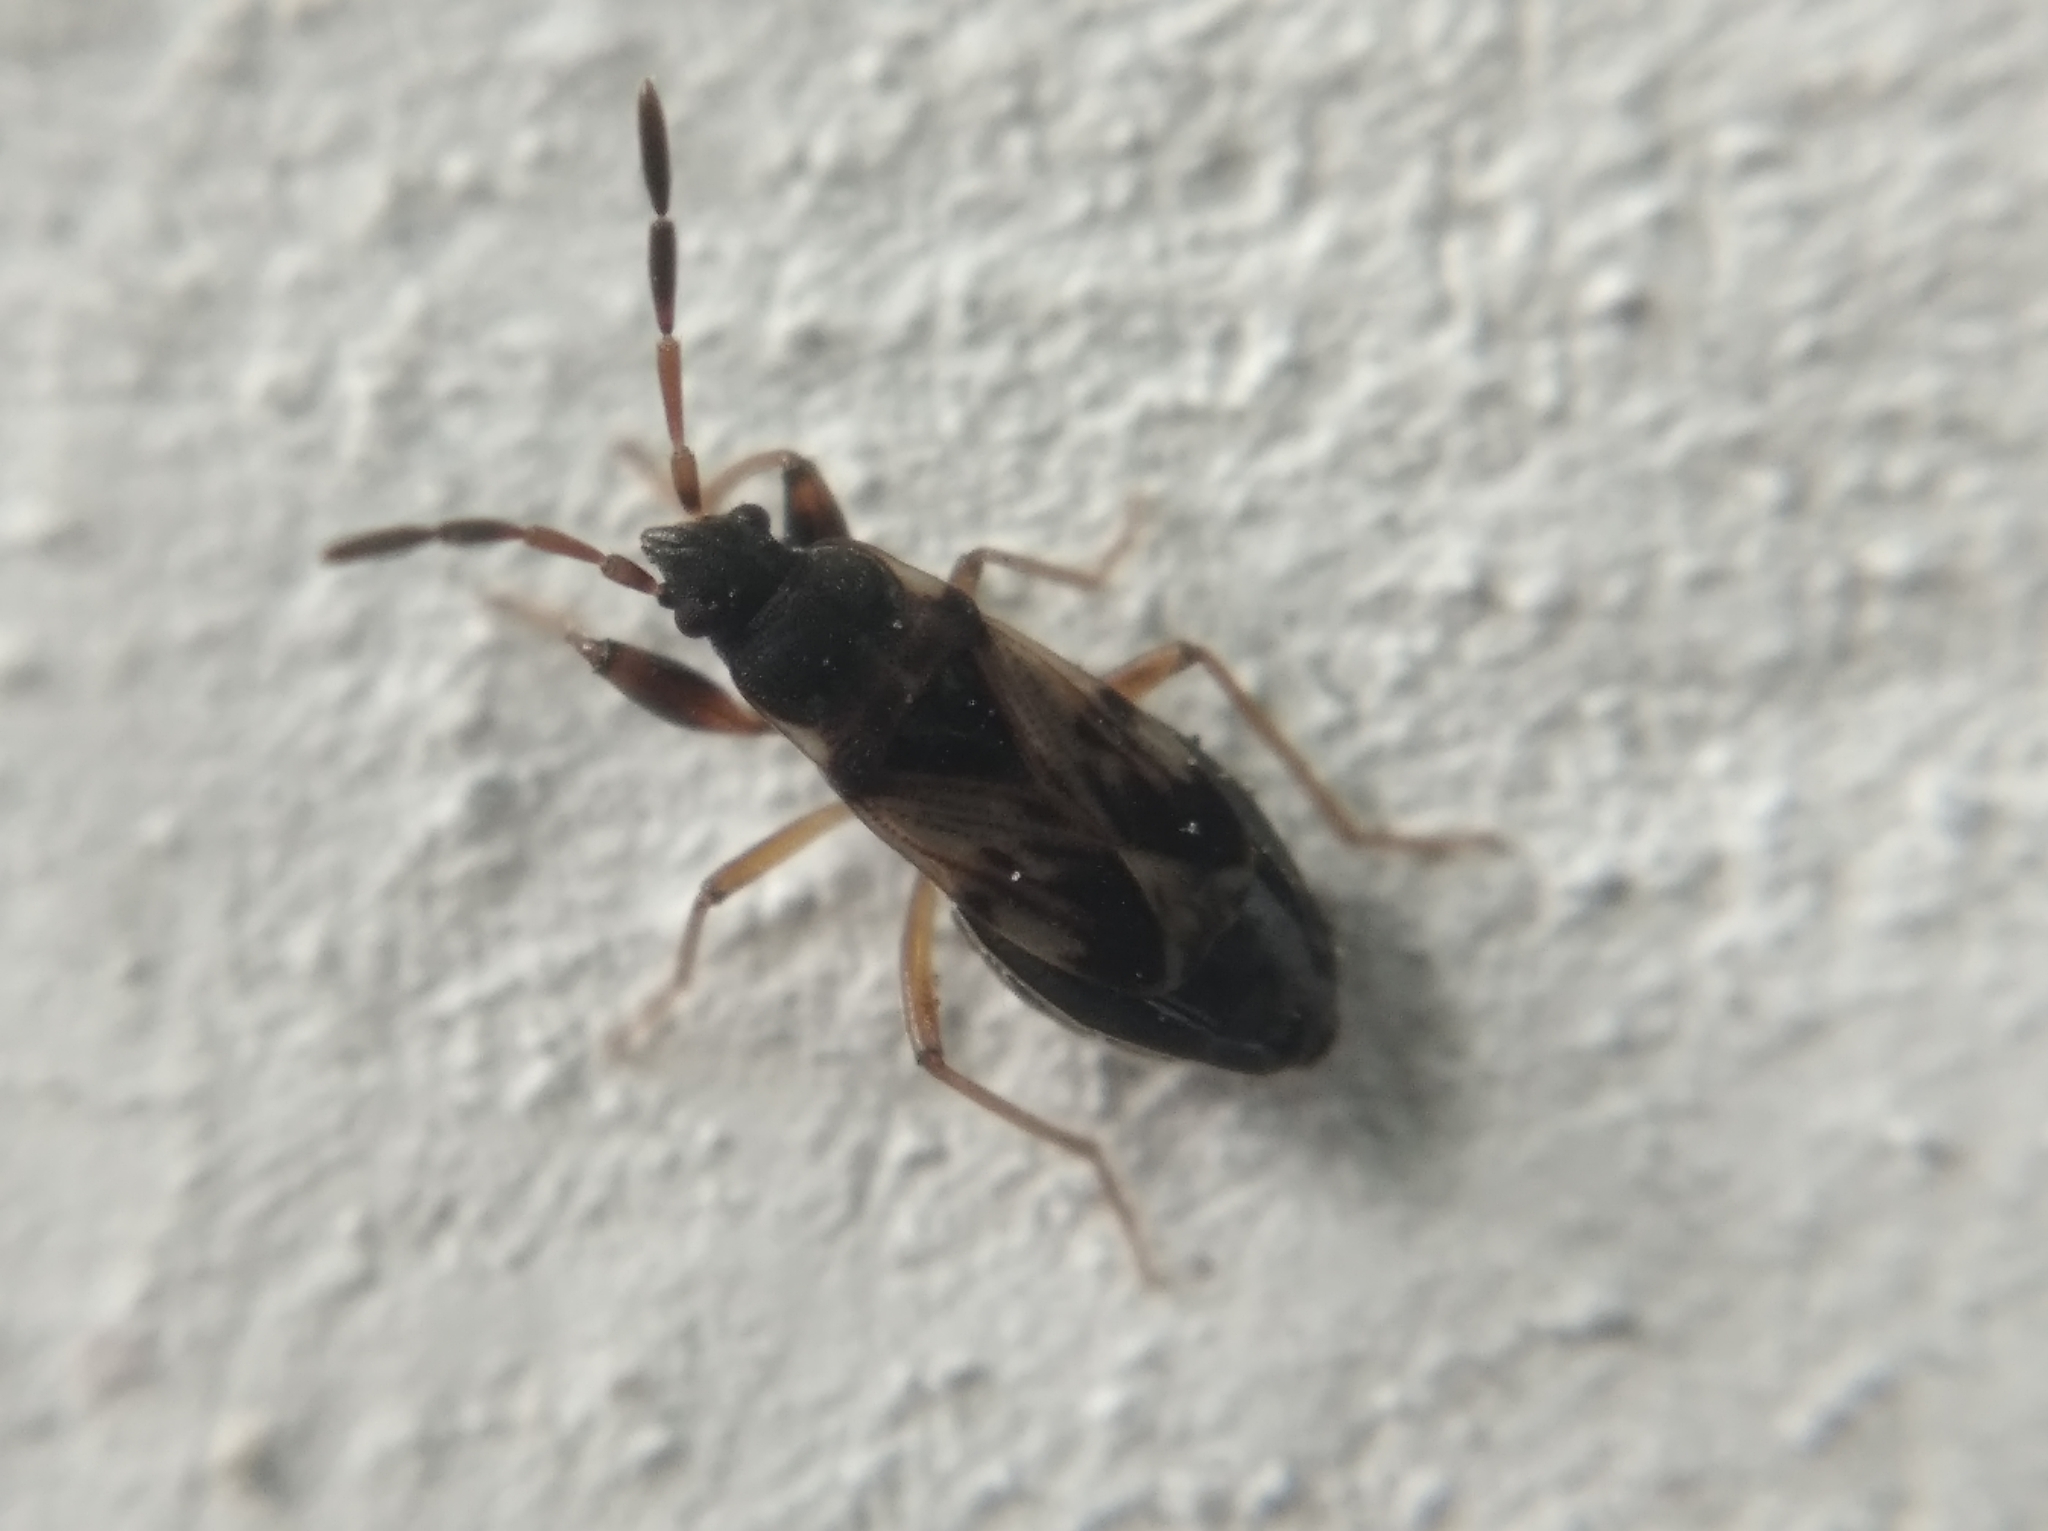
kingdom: Animalia
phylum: Arthropoda
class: Insecta
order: Hemiptera
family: Rhyparochromidae
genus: Scolopostethus
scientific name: Scolopostethus pictus
